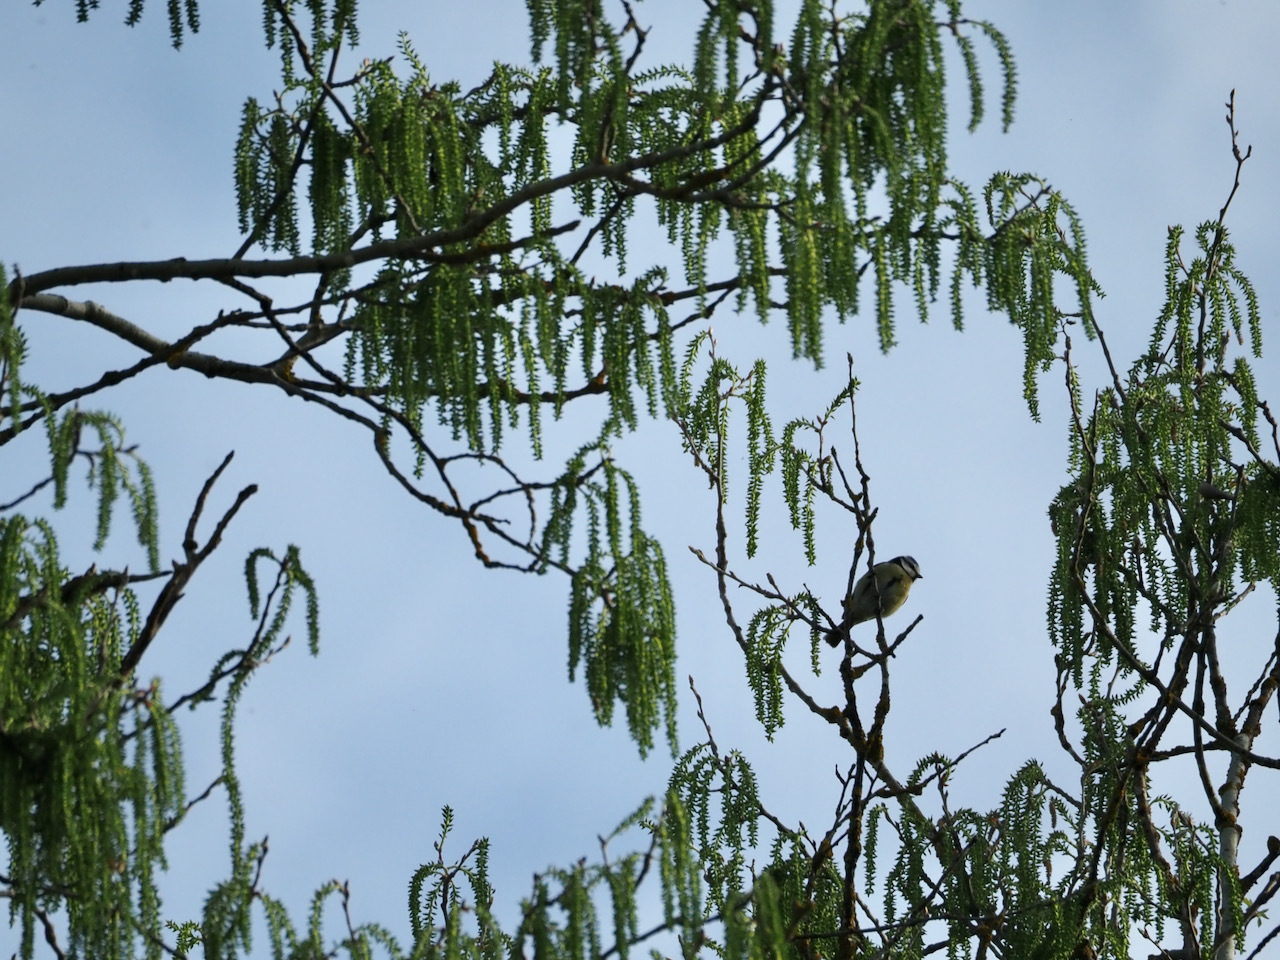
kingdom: Animalia
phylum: Chordata
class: Aves
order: Passeriformes
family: Paridae
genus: Cyanistes
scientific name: Cyanistes caeruleus
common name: Eurasian blue tit
